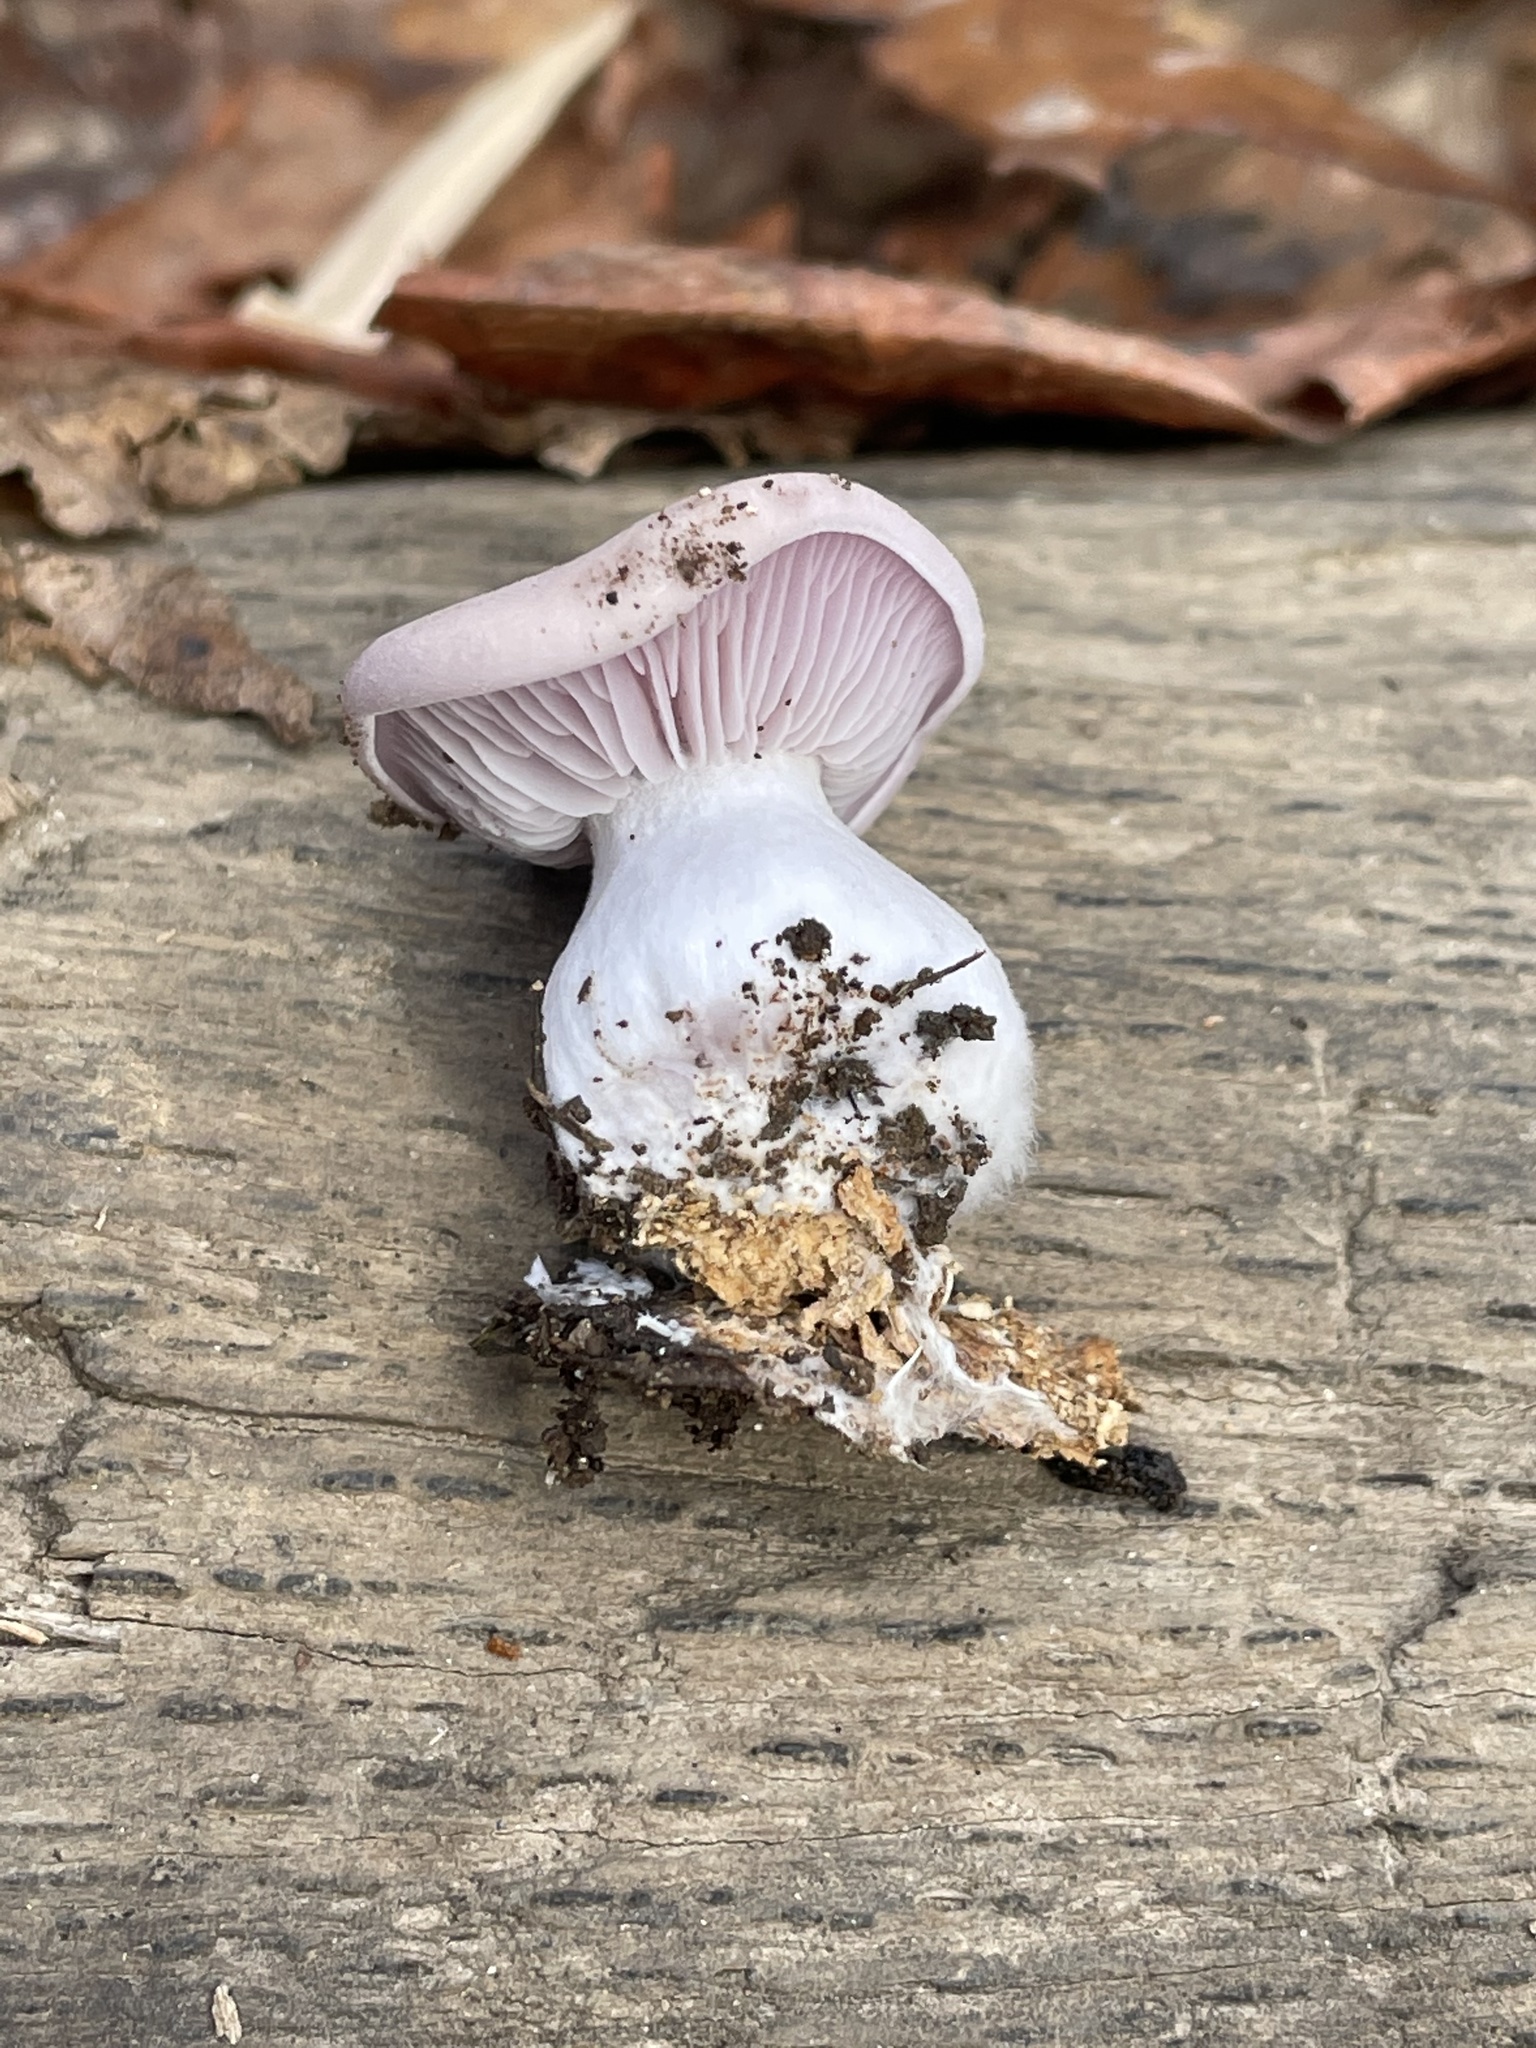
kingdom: Fungi
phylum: Basidiomycota
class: Agaricomycetes
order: Agaricales
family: Tricholomataceae
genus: Collybia
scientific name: Collybia
